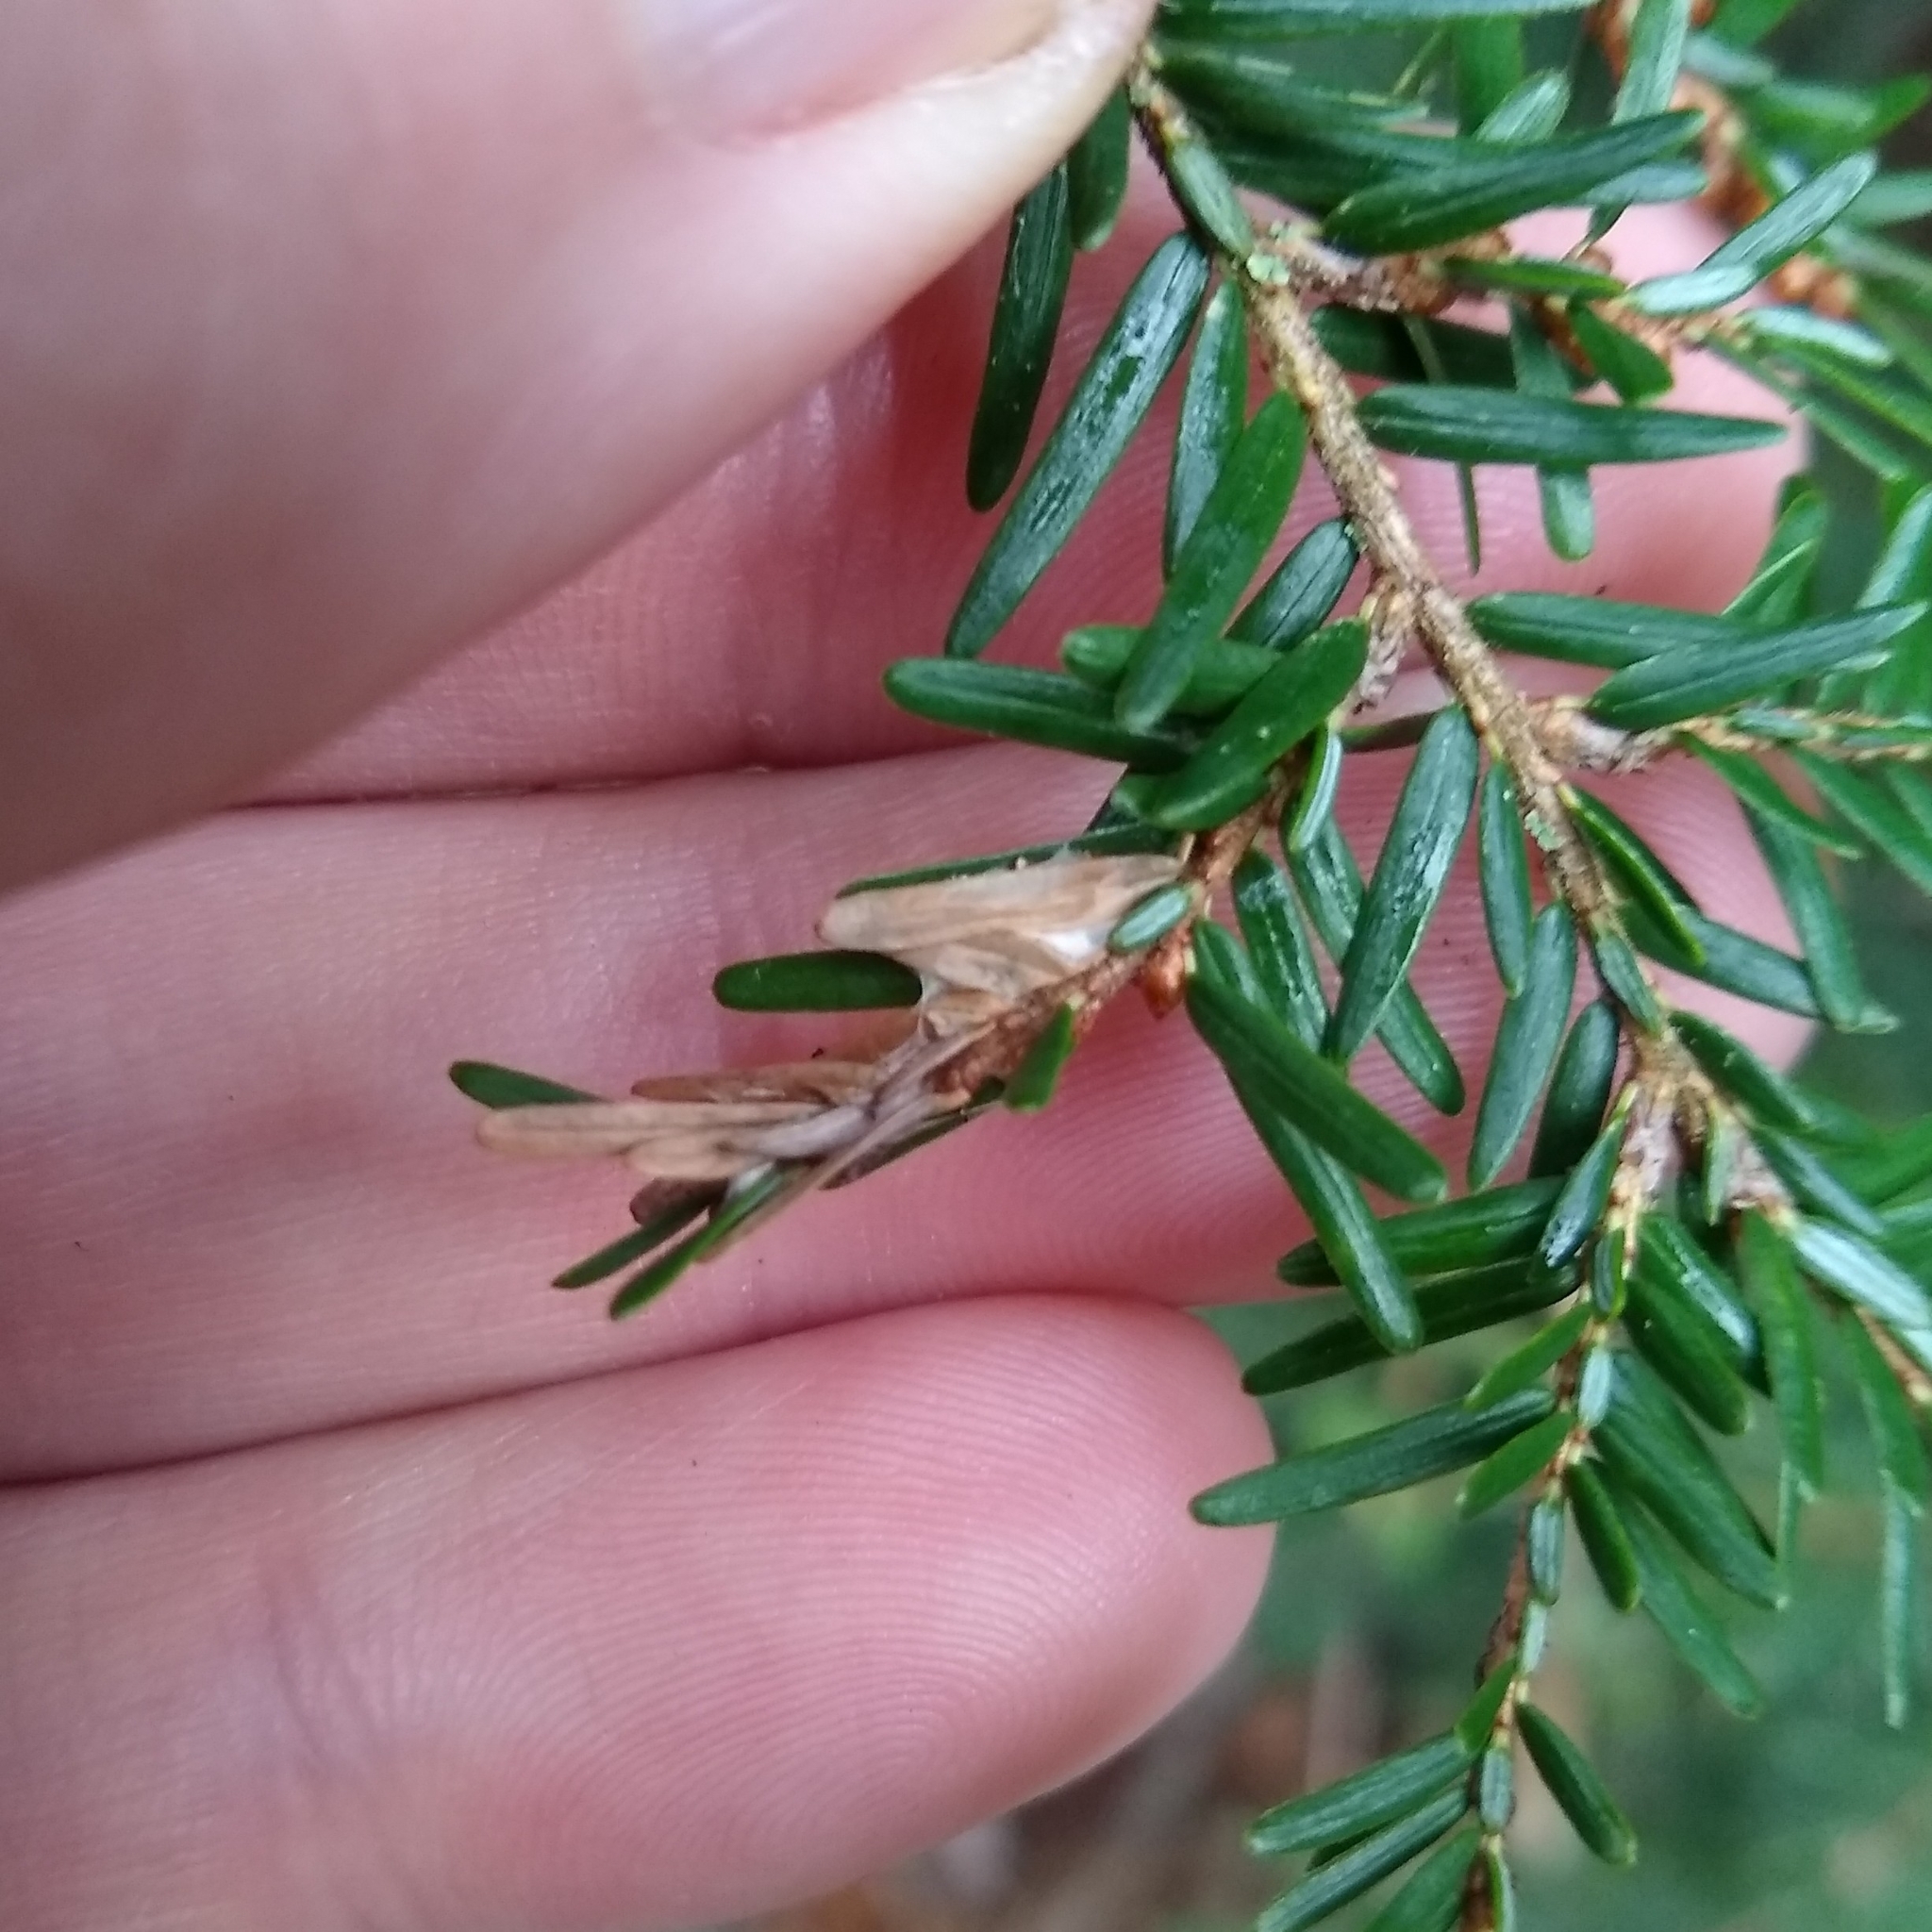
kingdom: Animalia
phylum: Arthropoda
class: Insecta
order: Lepidoptera
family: Gelechiidae
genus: Coleotechnites
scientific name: Coleotechnites
